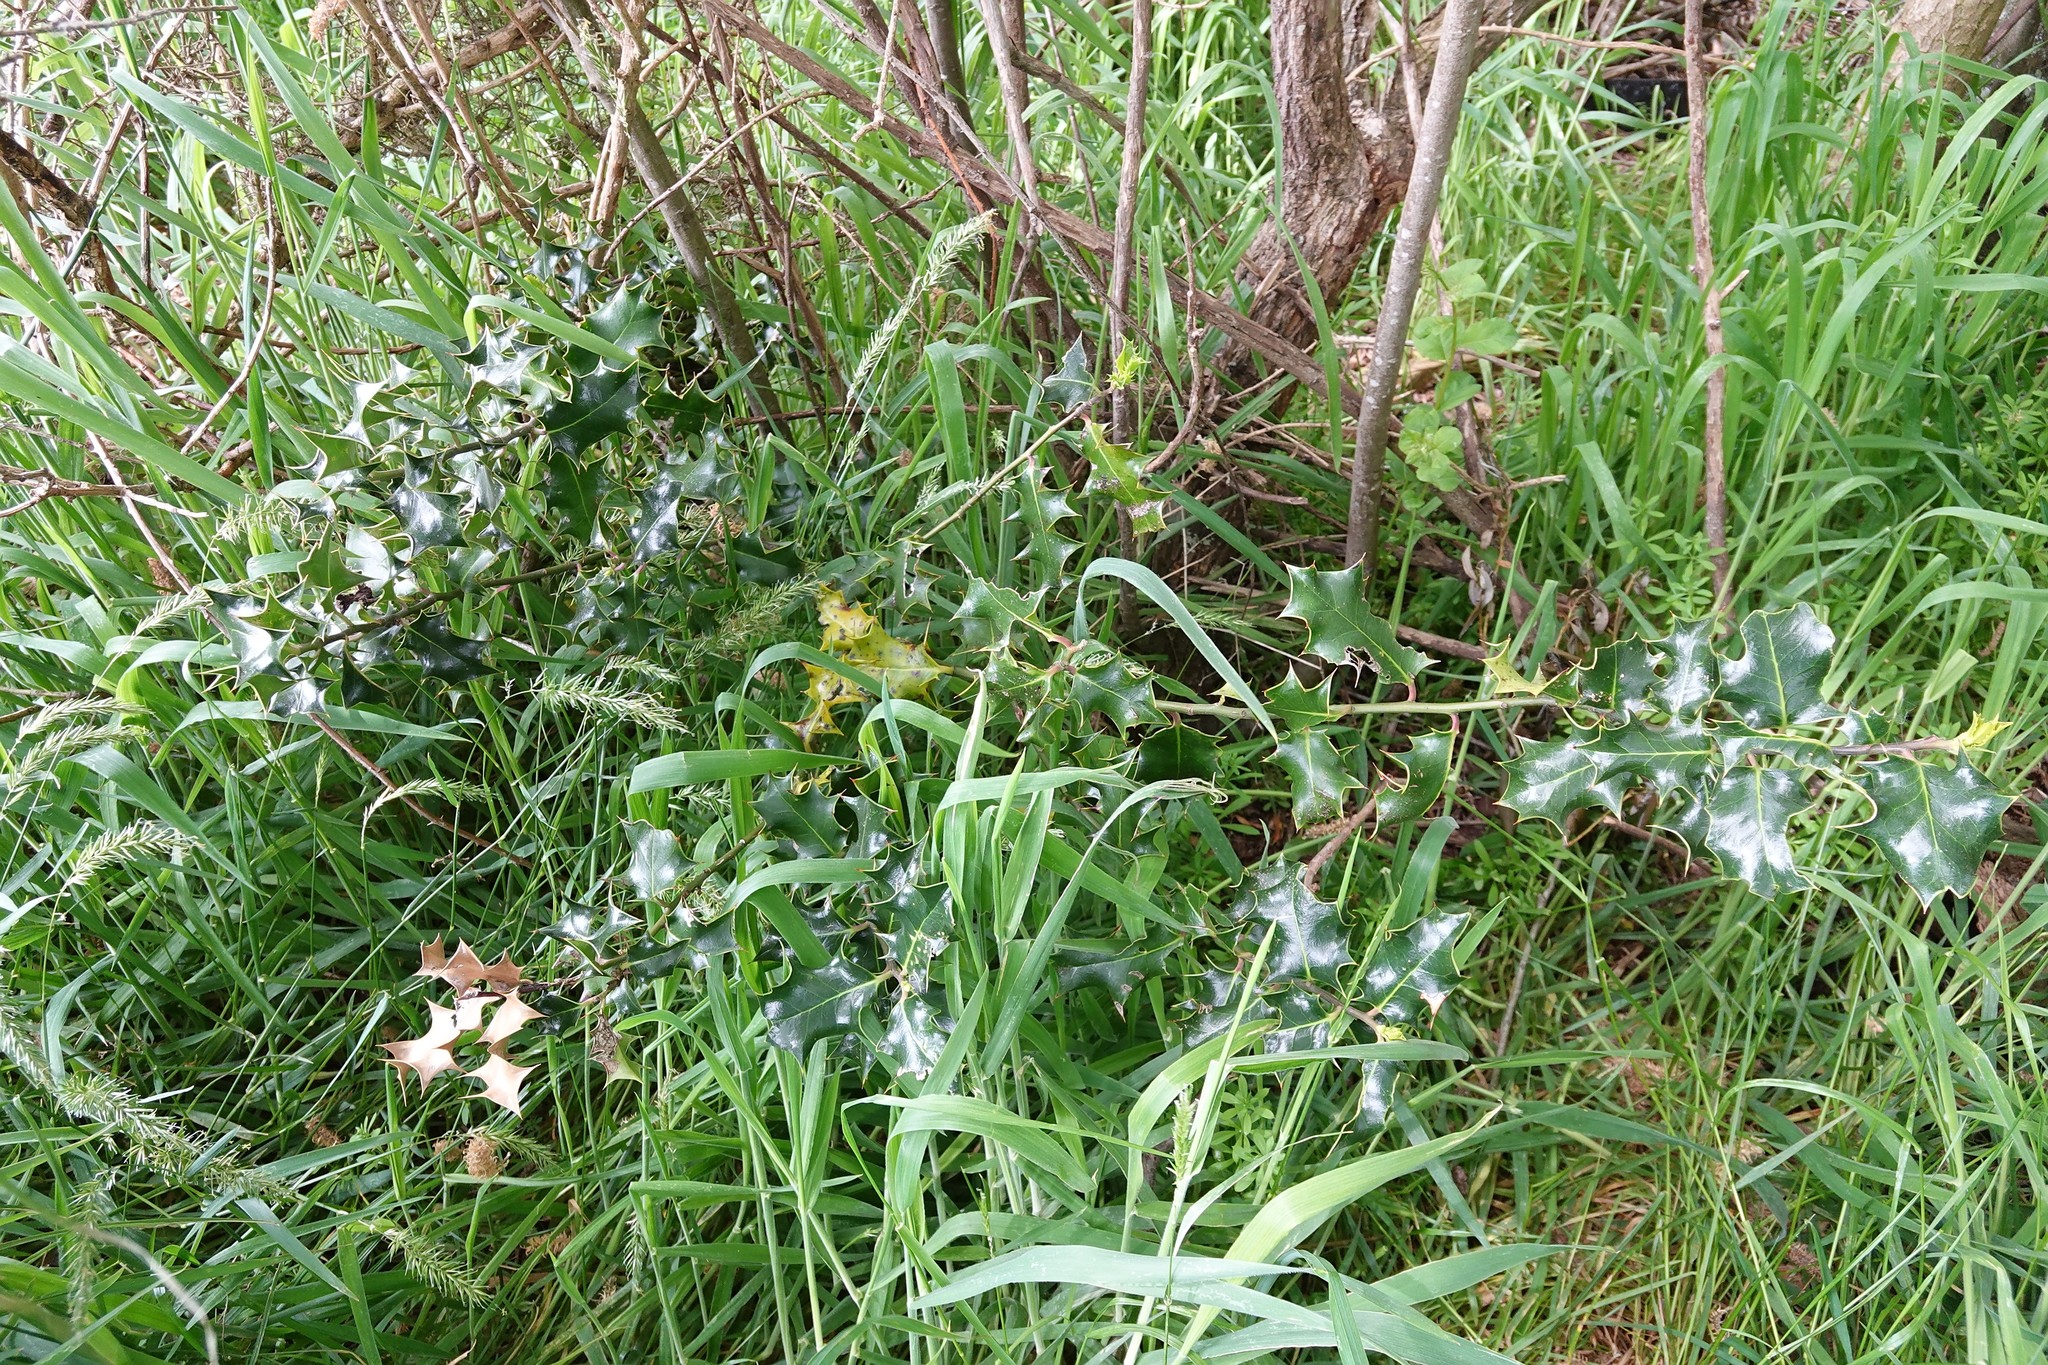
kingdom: Plantae
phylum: Tracheophyta
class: Magnoliopsida
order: Aquifoliales
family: Aquifoliaceae
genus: Ilex
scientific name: Ilex aquifolium
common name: English holly
